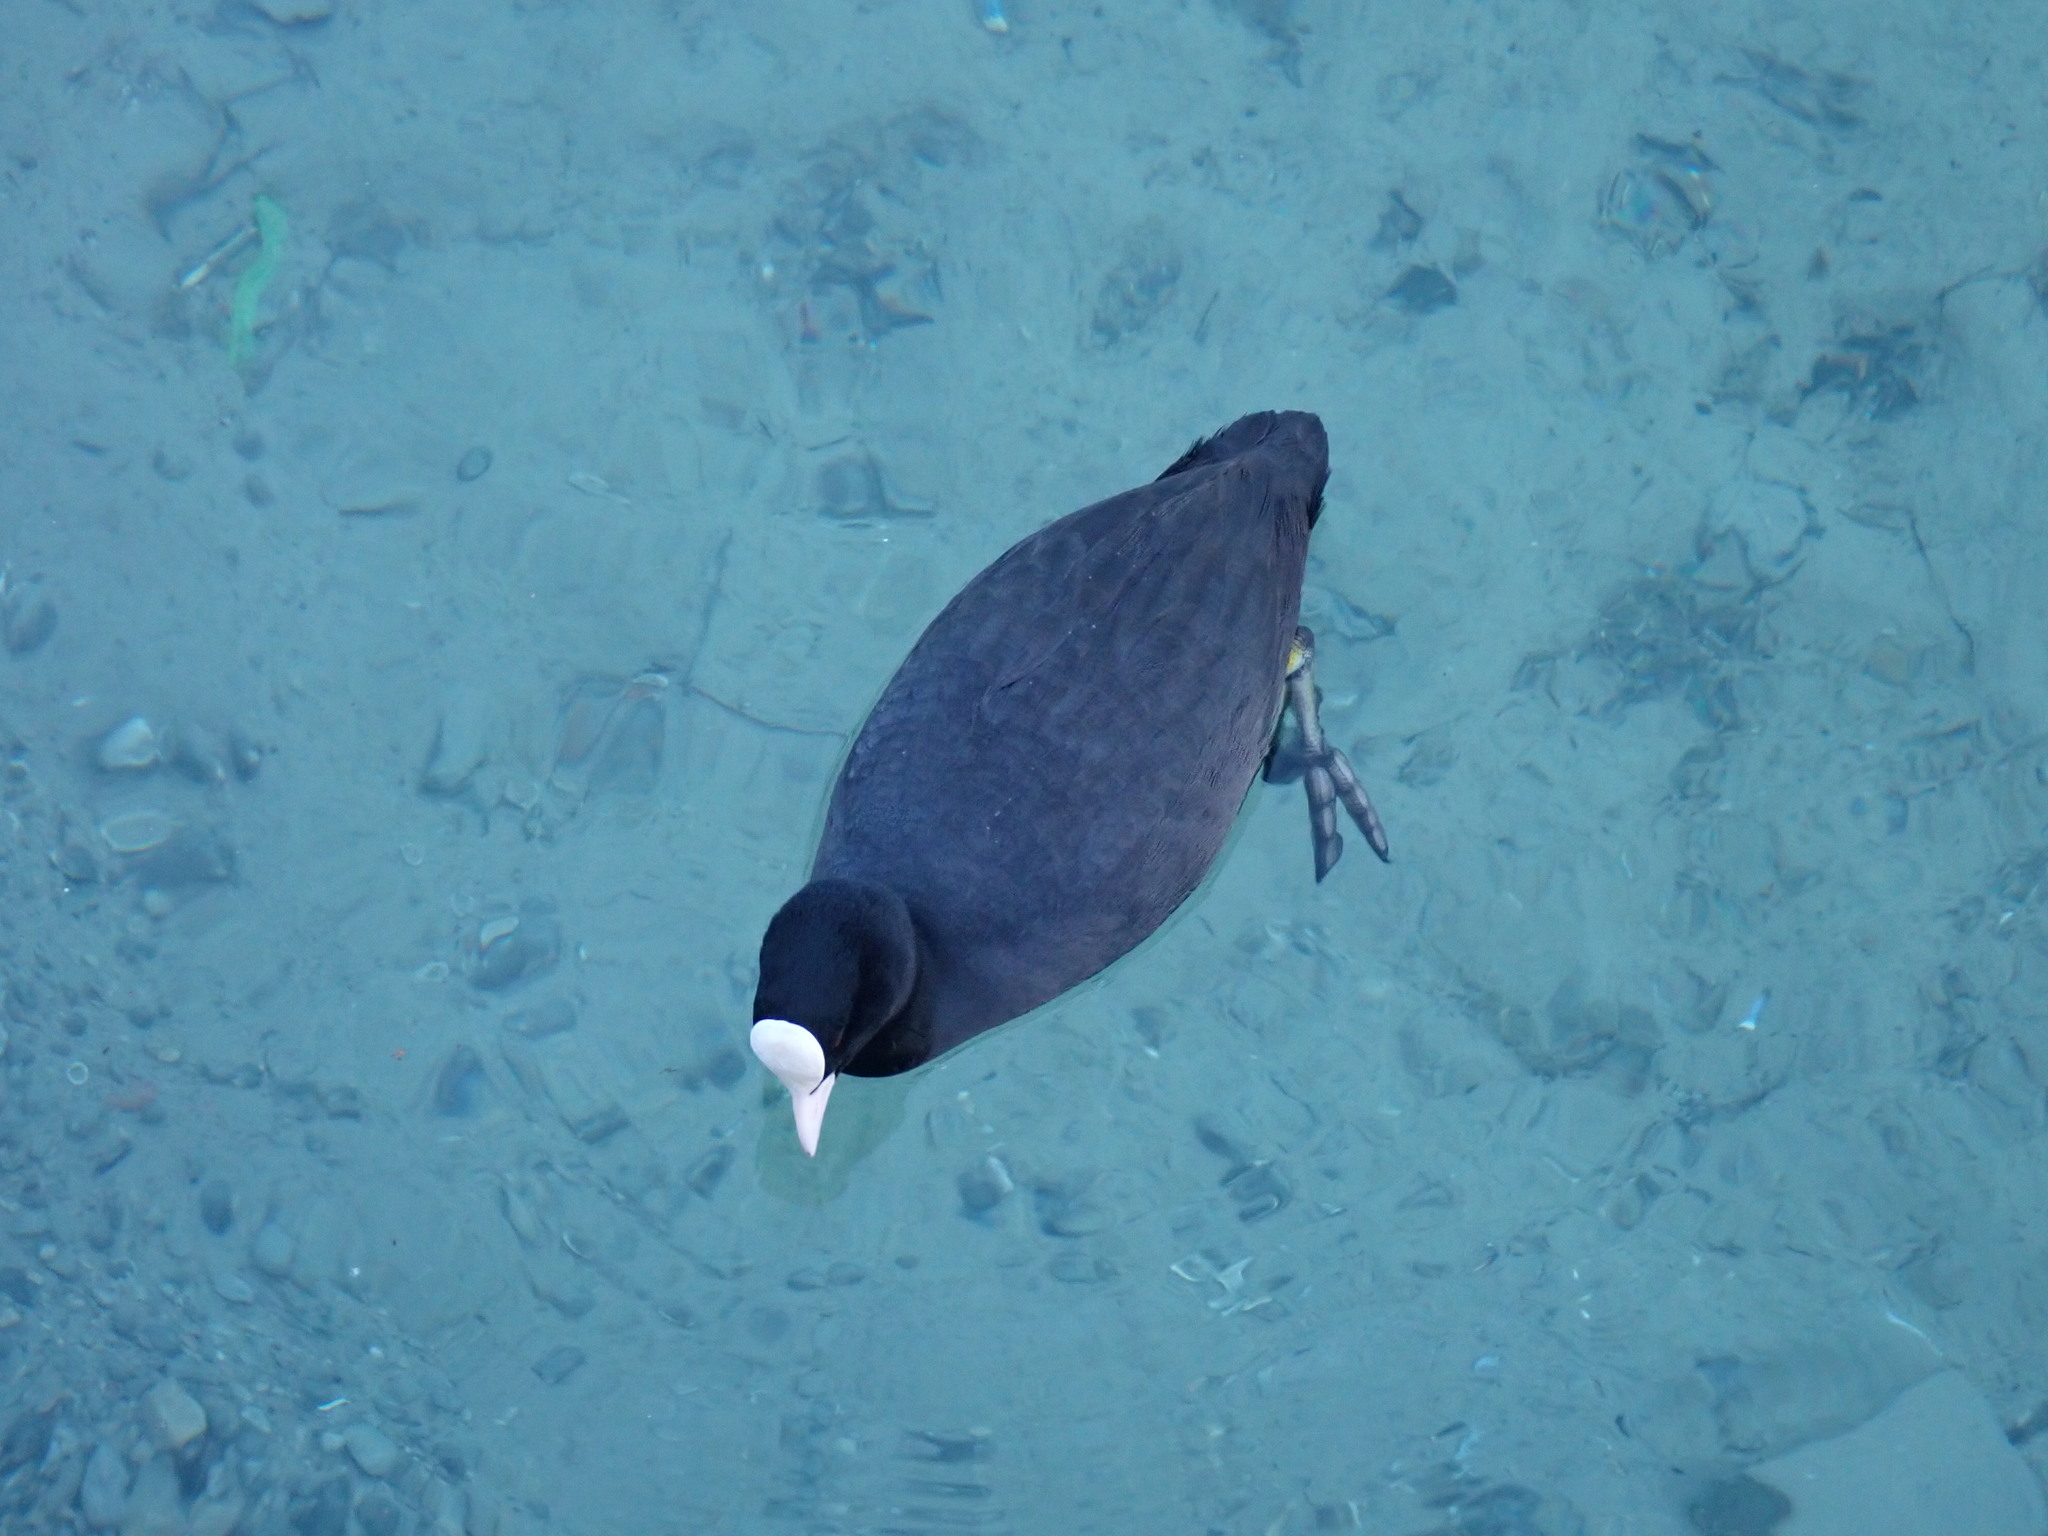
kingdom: Animalia
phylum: Chordata
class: Aves
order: Gruiformes
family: Rallidae
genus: Fulica
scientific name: Fulica atra
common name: Eurasian coot
